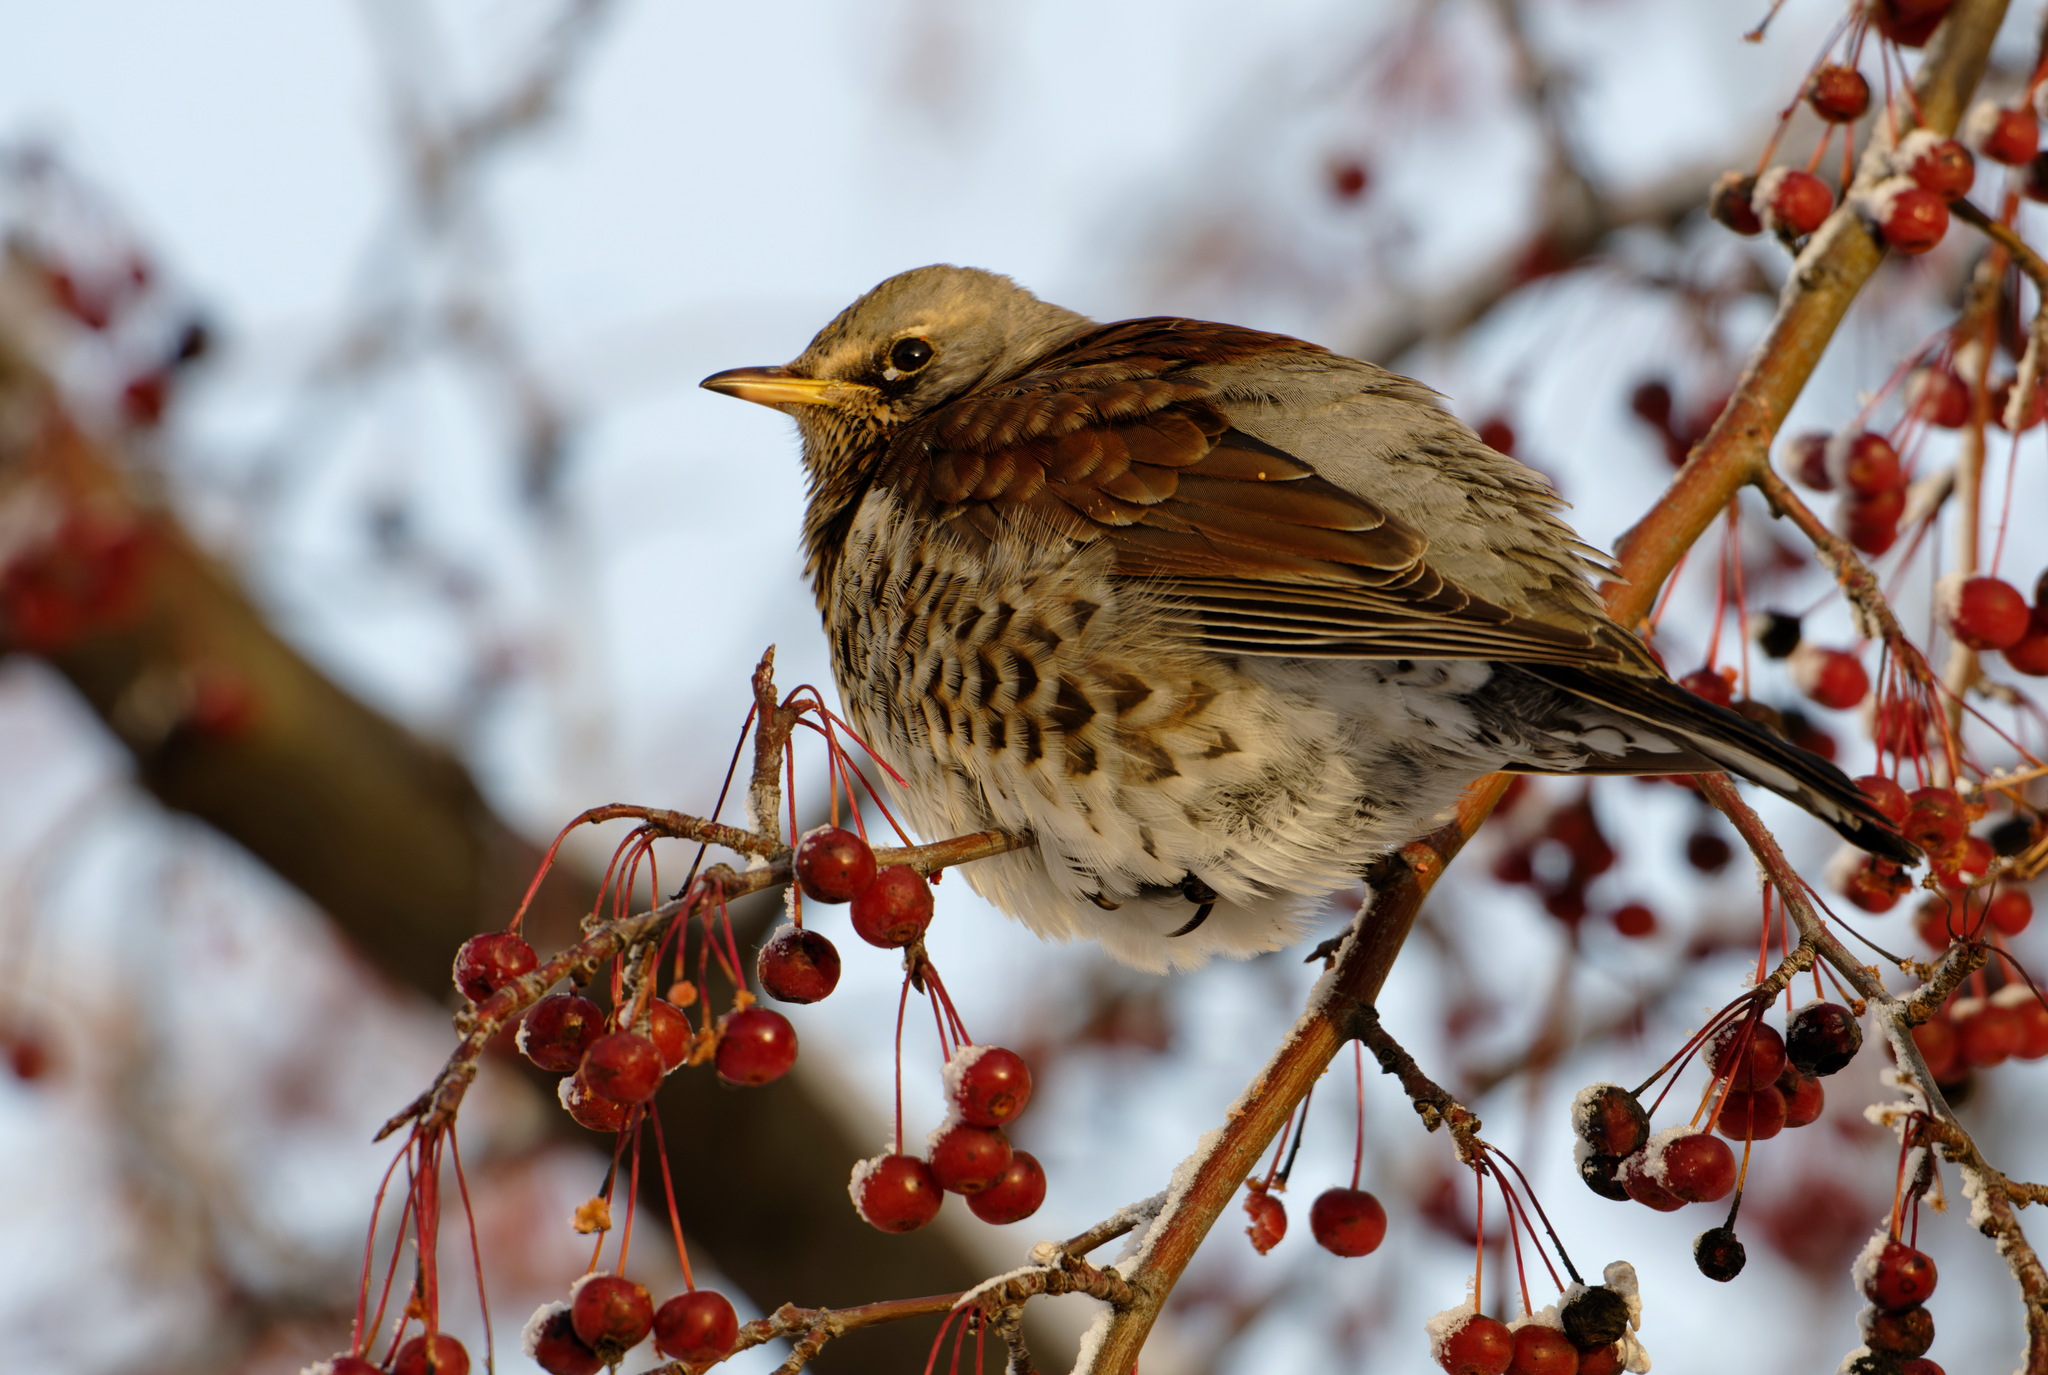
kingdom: Animalia
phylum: Chordata
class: Aves
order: Passeriformes
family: Turdidae
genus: Turdus
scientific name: Turdus pilaris
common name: Fieldfare
